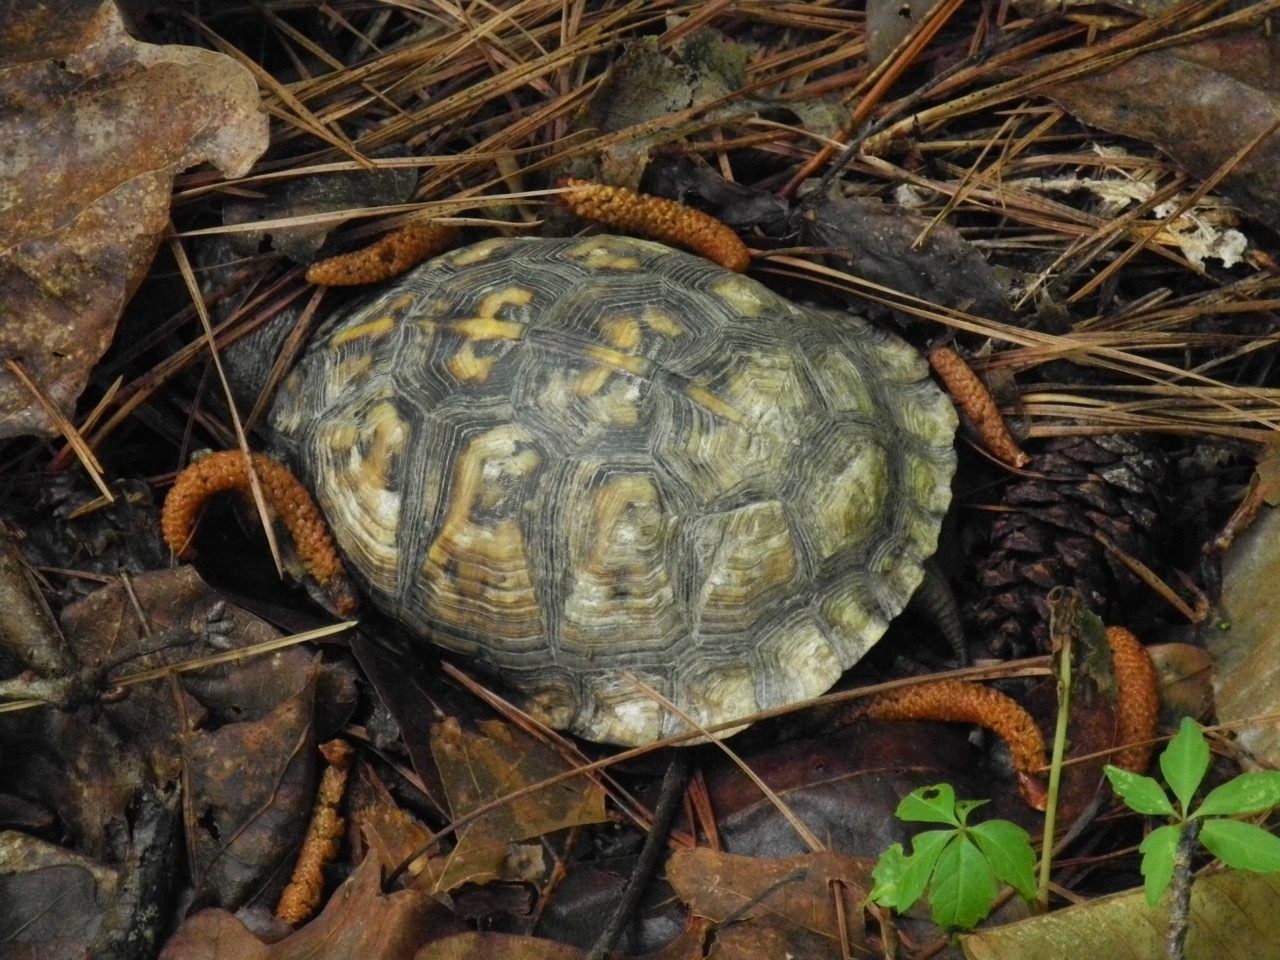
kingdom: Animalia
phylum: Chordata
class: Testudines
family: Emydidae
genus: Terrapene
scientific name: Terrapene carolina
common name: Common box turtle
